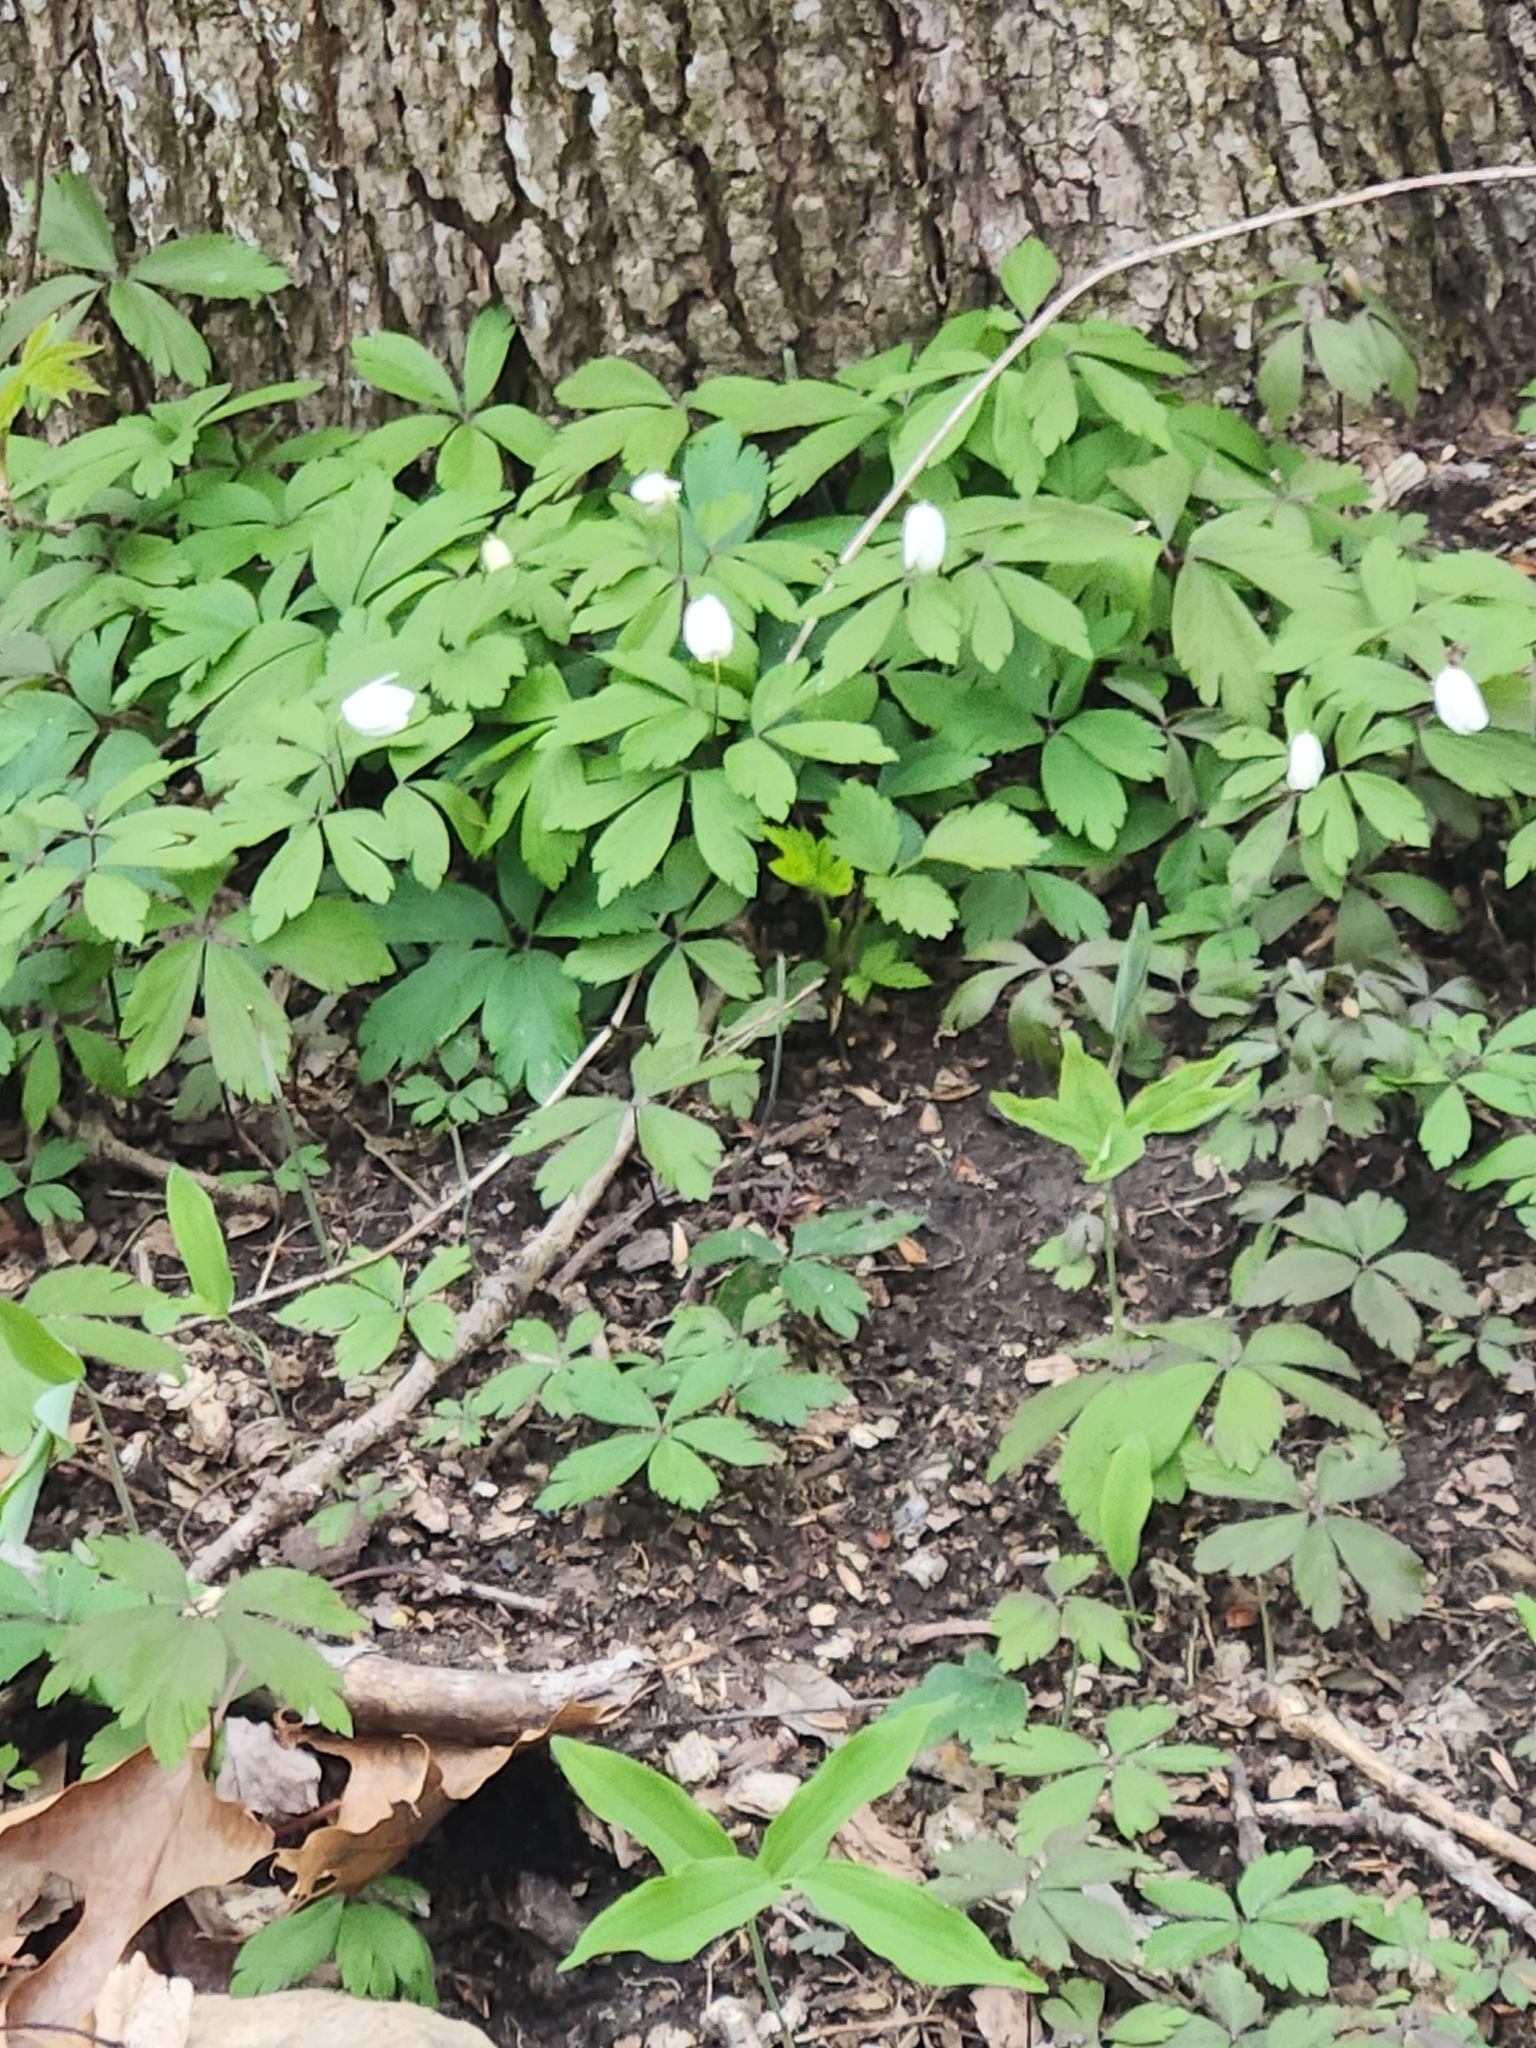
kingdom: Plantae
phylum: Tracheophyta
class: Magnoliopsida
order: Ranunculales
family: Ranunculaceae
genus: Anemone
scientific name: Anemone quinquefolia
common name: Wood anemone
